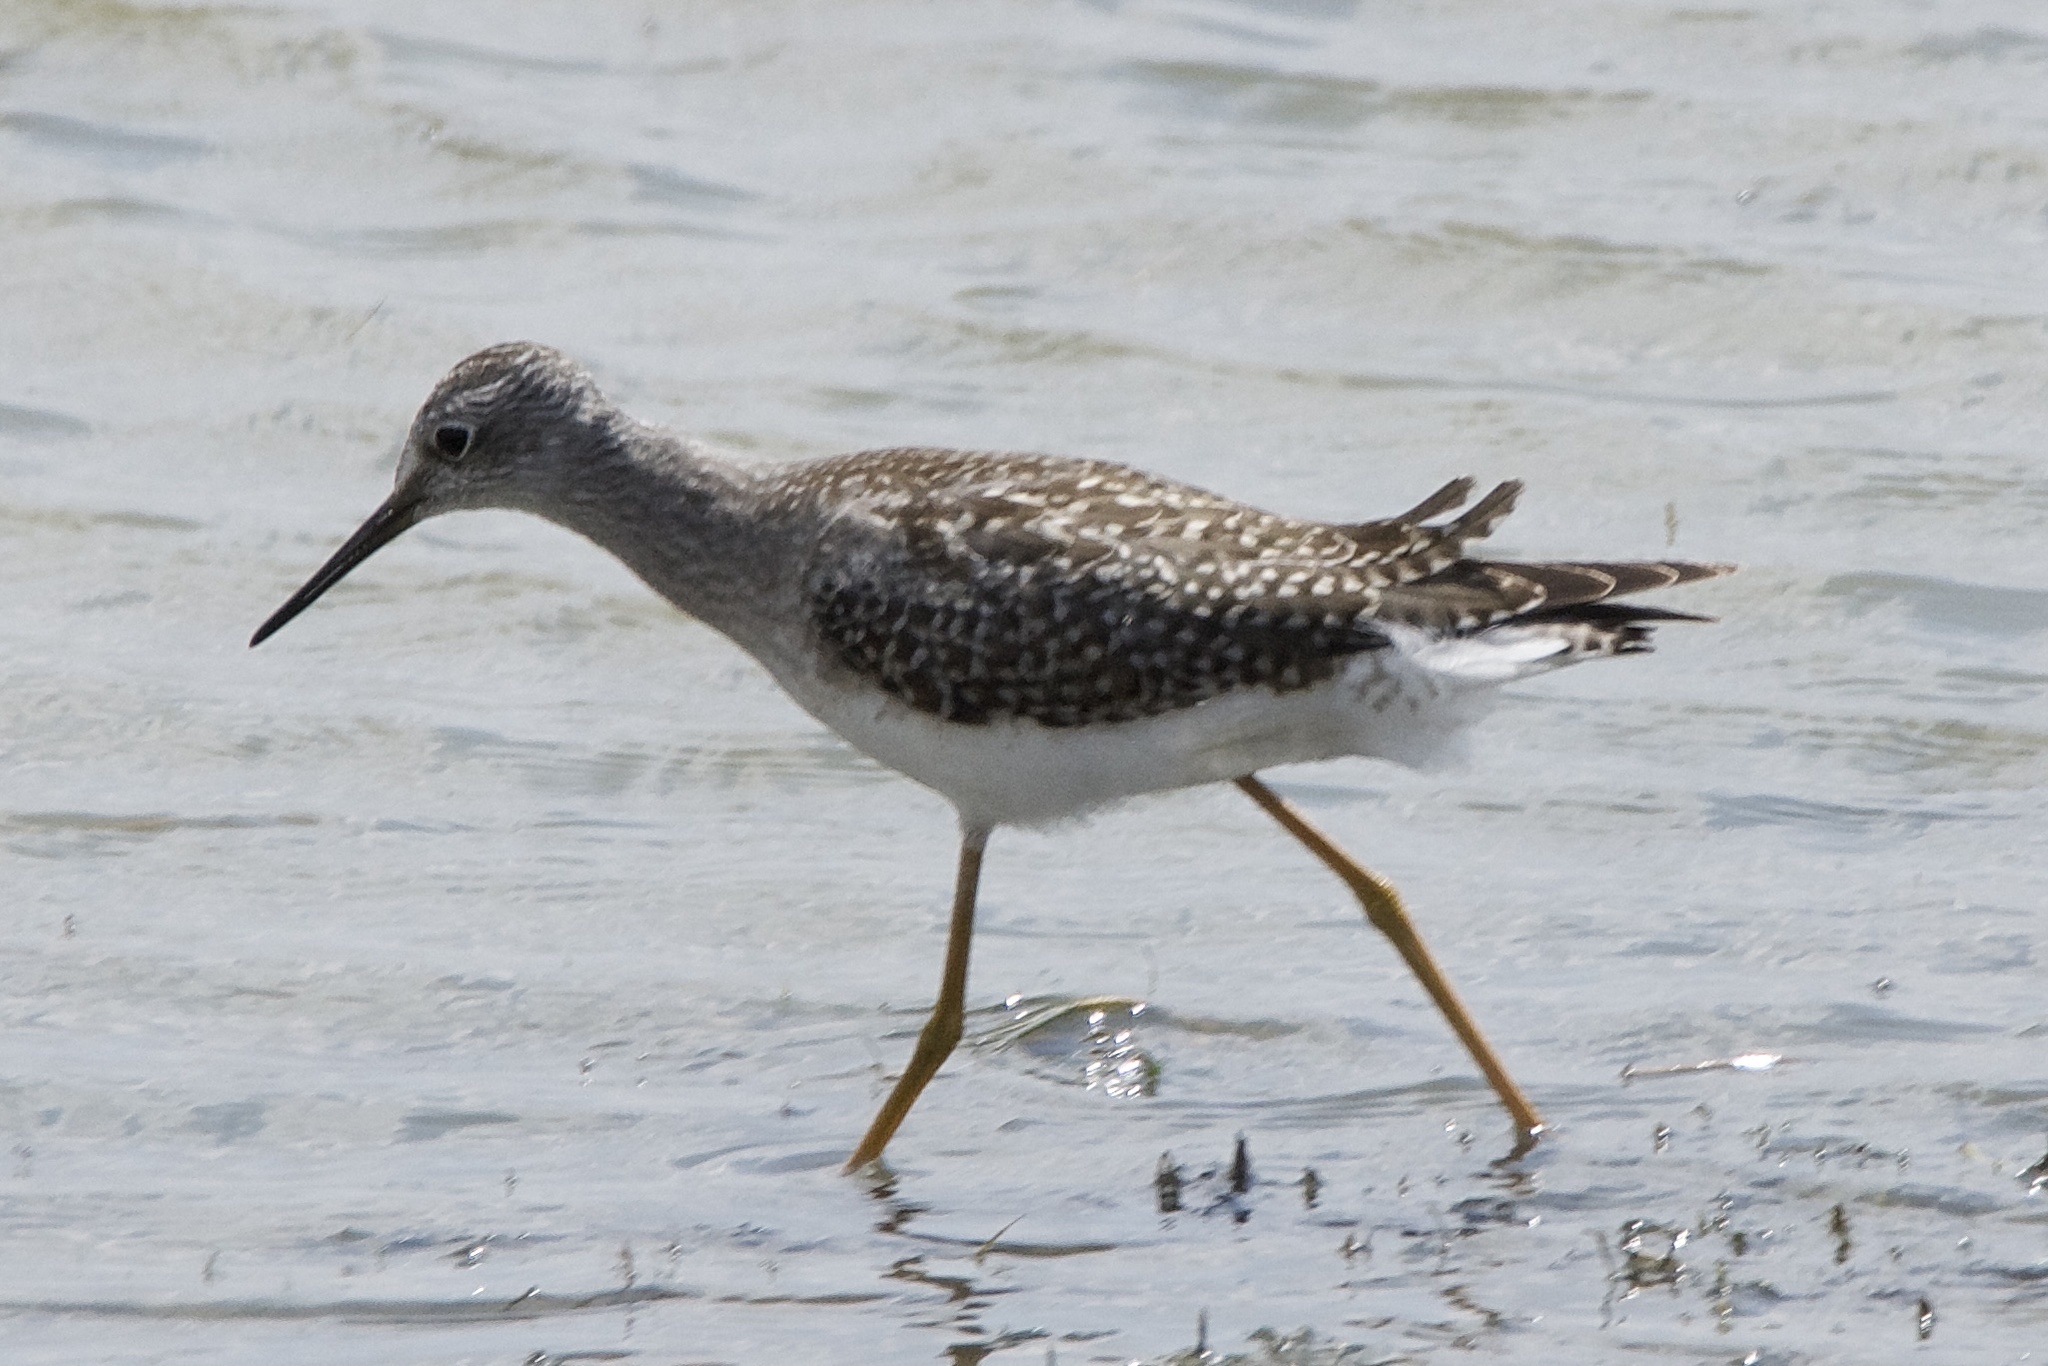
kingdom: Animalia
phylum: Chordata
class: Aves
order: Charadriiformes
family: Scolopacidae
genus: Tringa
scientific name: Tringa flavipes
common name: Lesser yellowlegs
